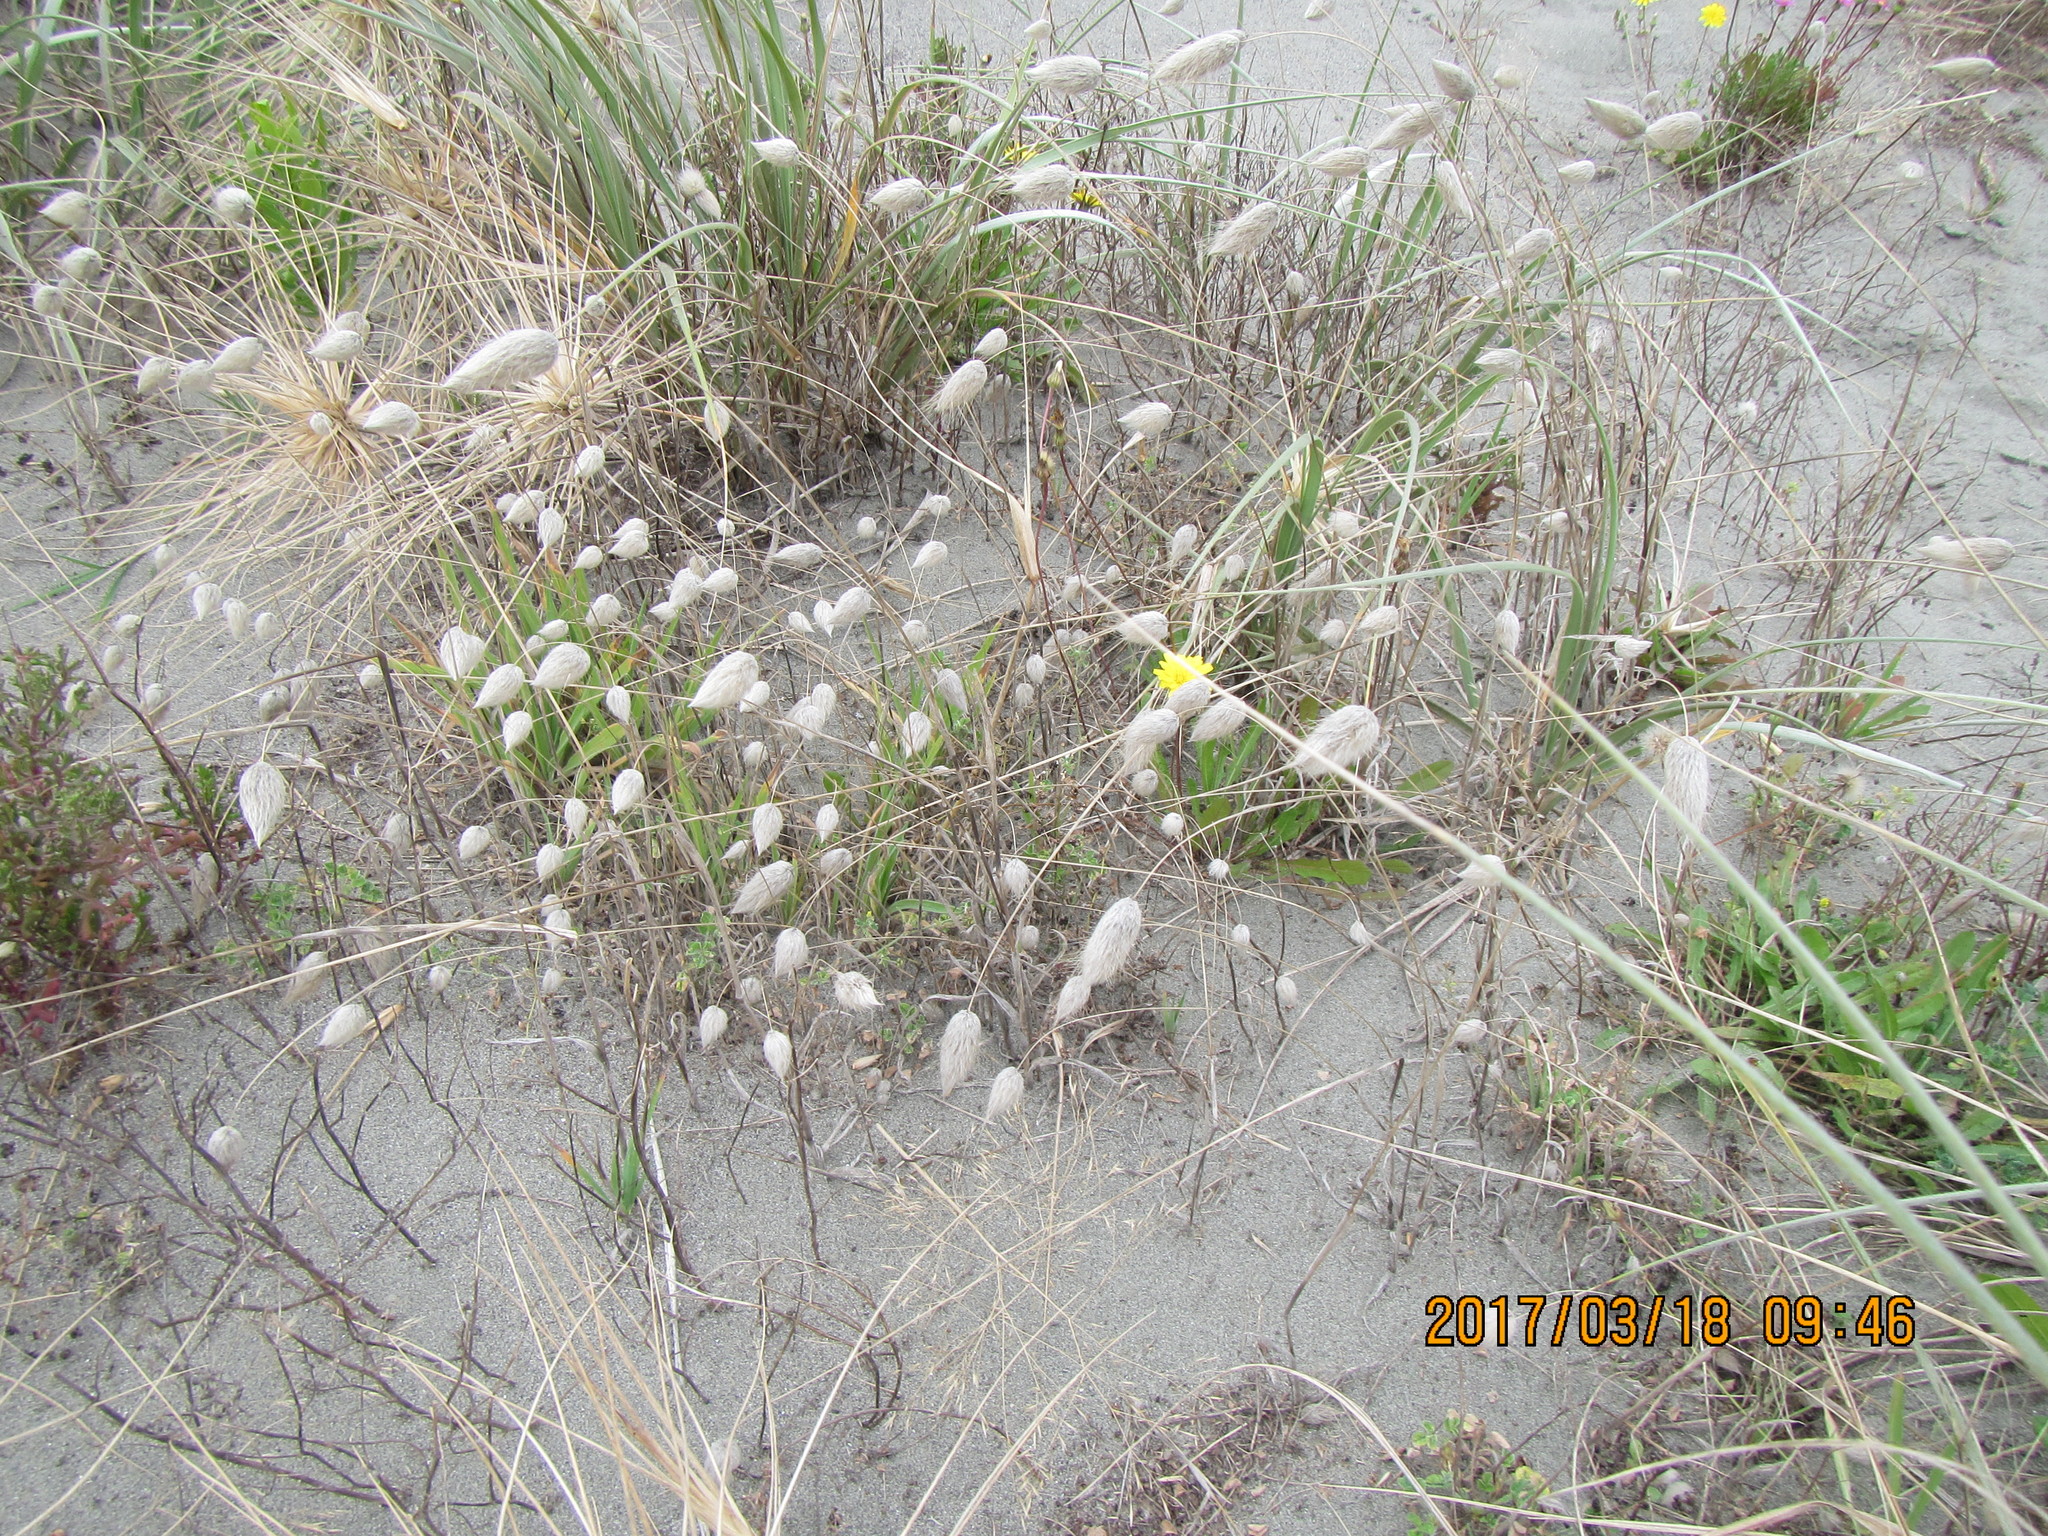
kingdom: Plantae
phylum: Tracheophyta
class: Liliopsida
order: Poales
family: Poaceae
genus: Lagurus
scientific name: Lagurus ovatus
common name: Hare's-tail
